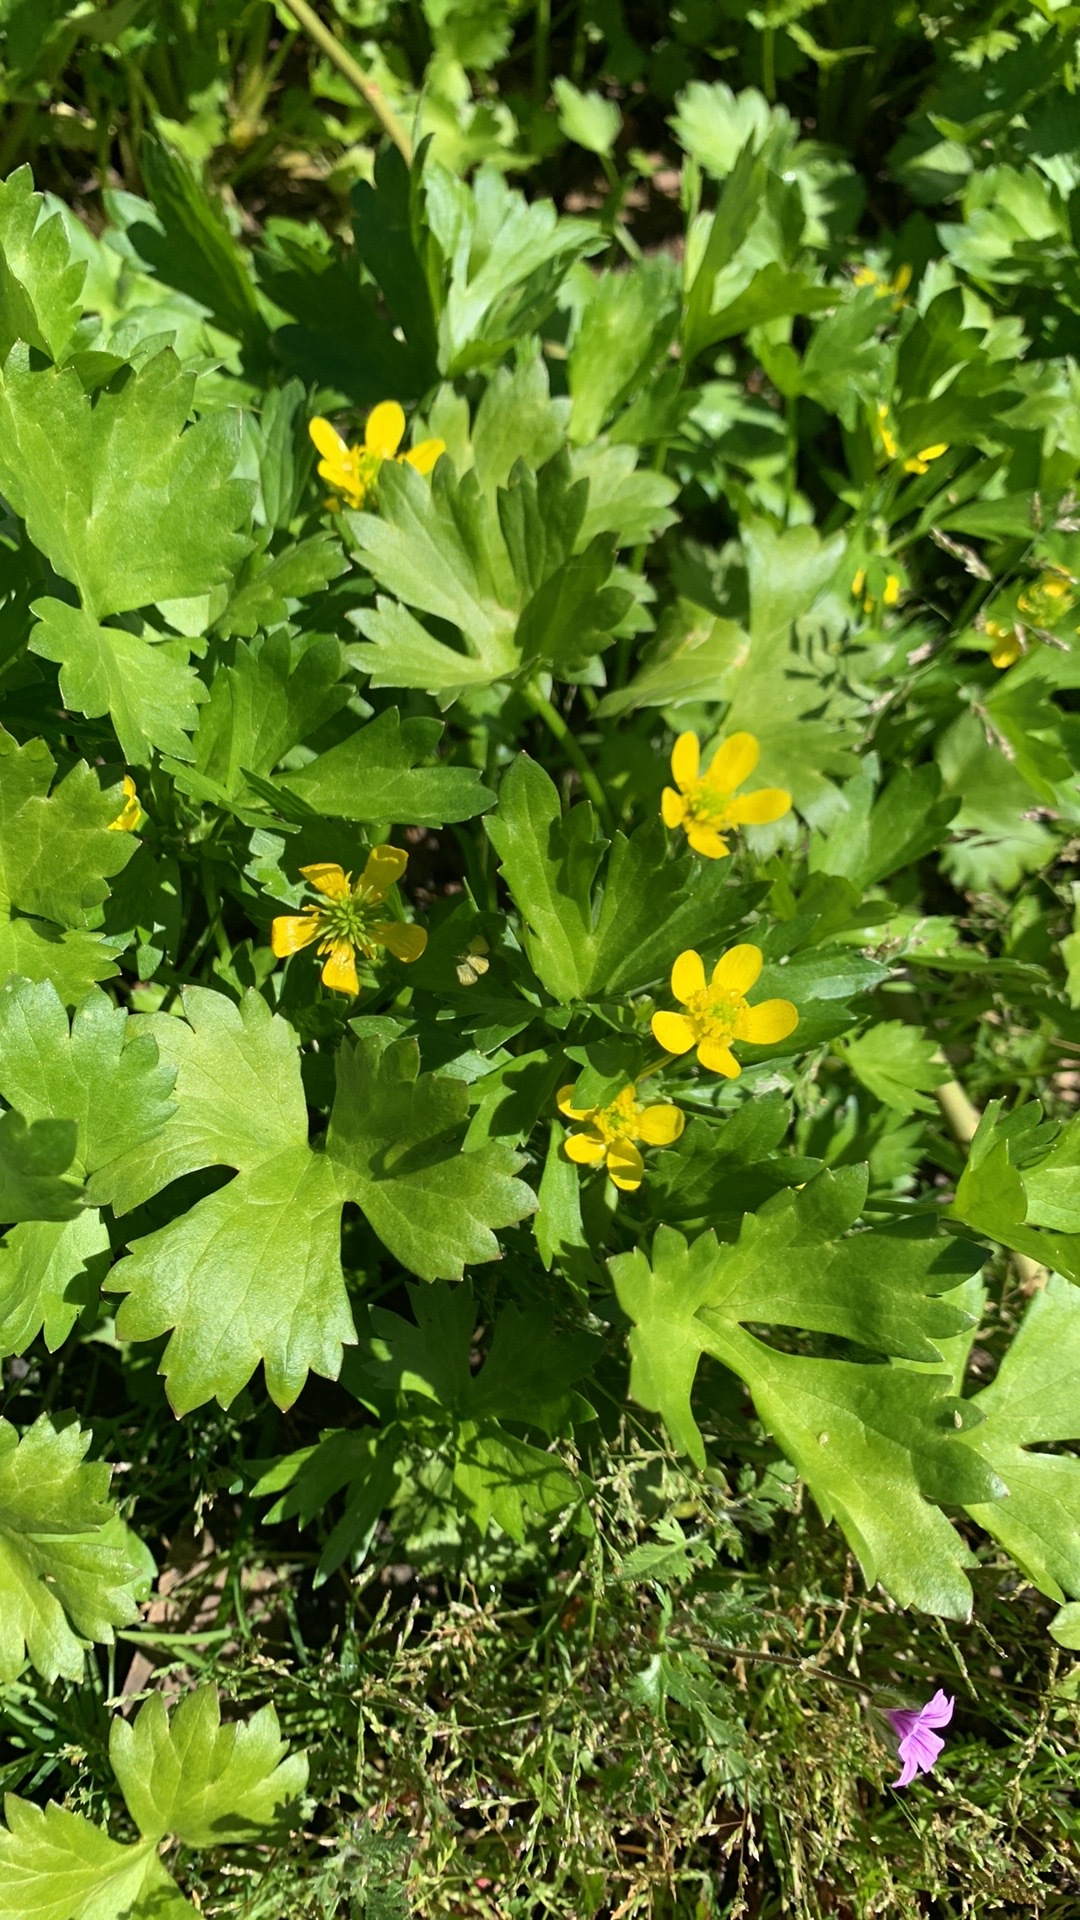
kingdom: Plantae
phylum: Tracheophyta
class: Magnoliopsida
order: Ranunculales
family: Ranunculaceae
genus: Ranunculus
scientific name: Ranunculus muricatus
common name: Rough-fruited buttercup
